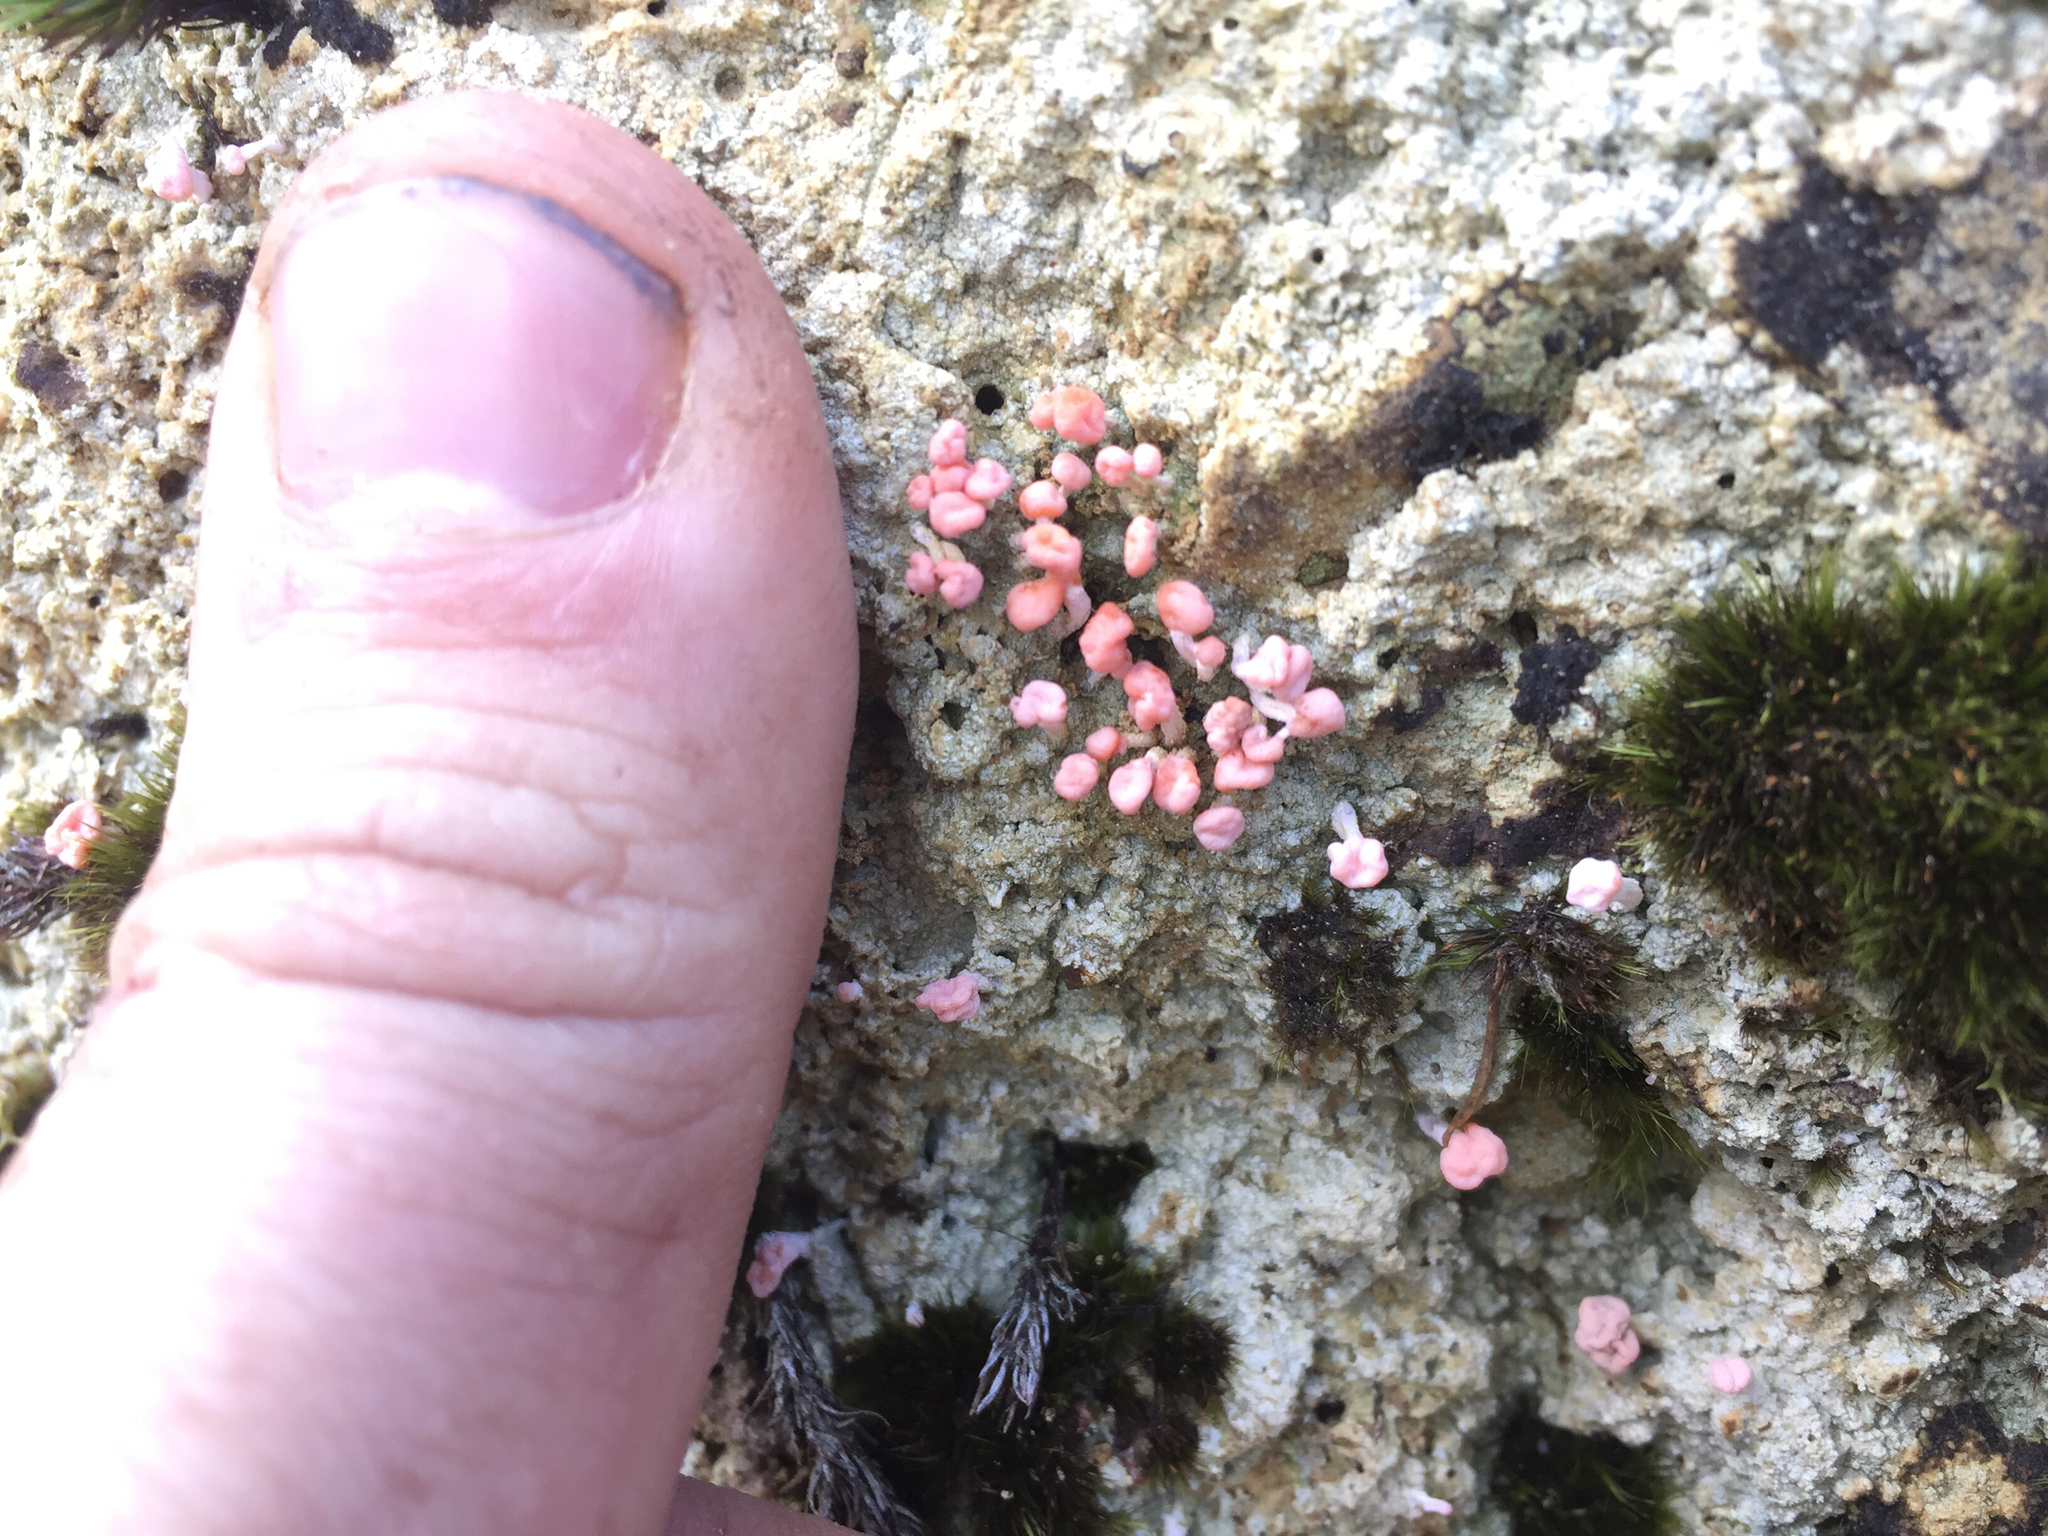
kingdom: Fungi
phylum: Ascomycota
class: Lecanoromycetes
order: Pertusariales
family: Icmadophilaceae
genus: Dibaeis
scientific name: Dibaeis arcuata
